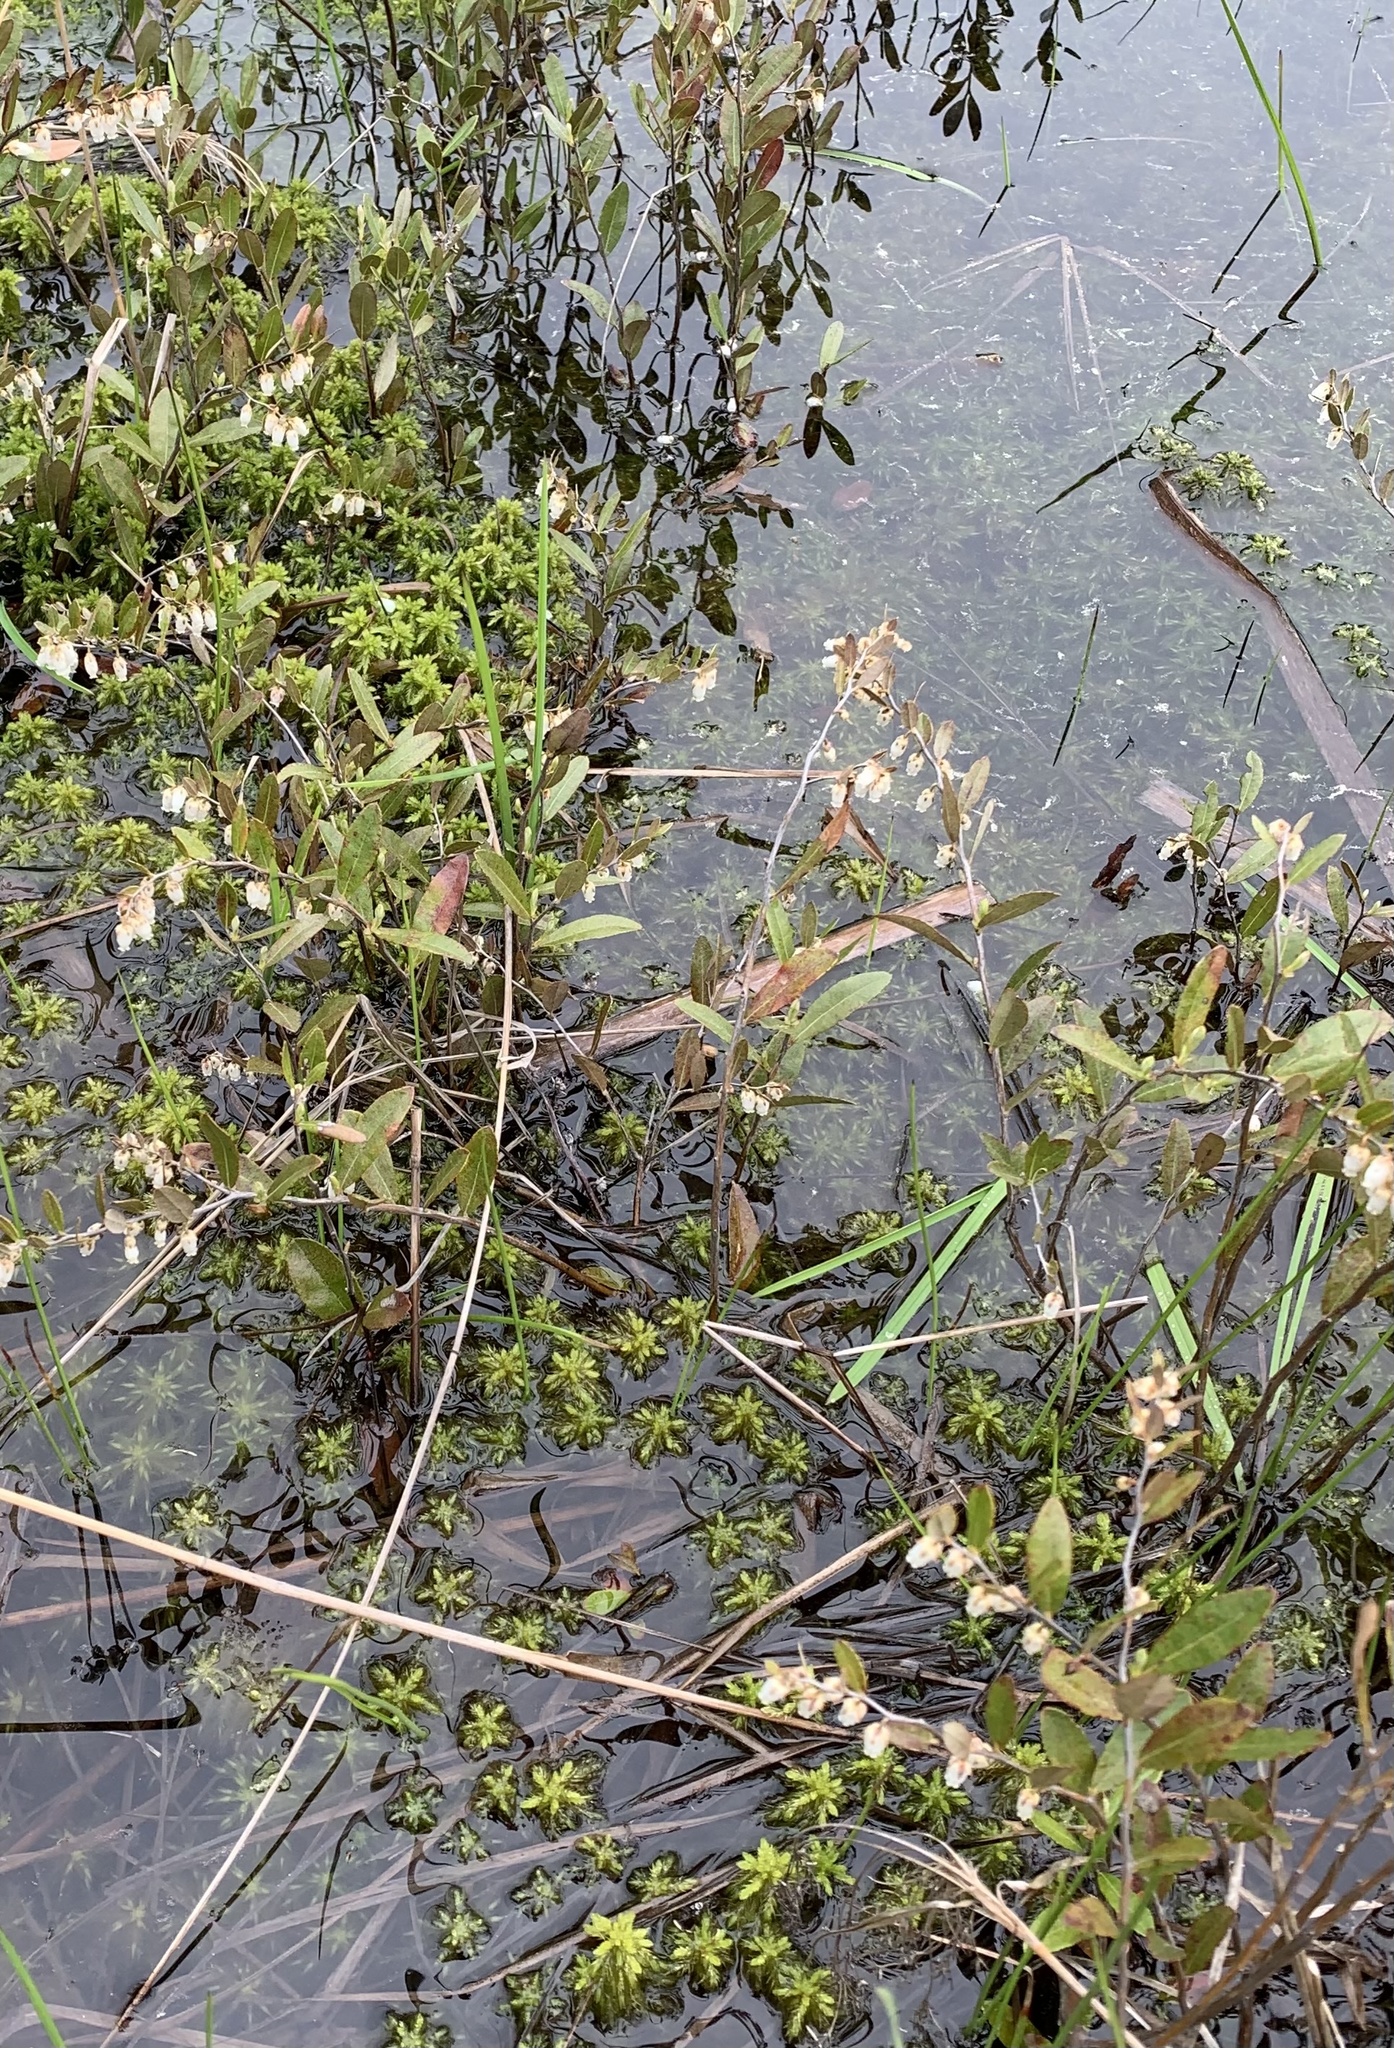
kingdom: Plantae
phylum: Tracheophyta
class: Magnoliopsida
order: Ericales
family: Ericaceae
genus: Chamaedaphne
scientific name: Chamaedaphne calyculata
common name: Leatherleaf
